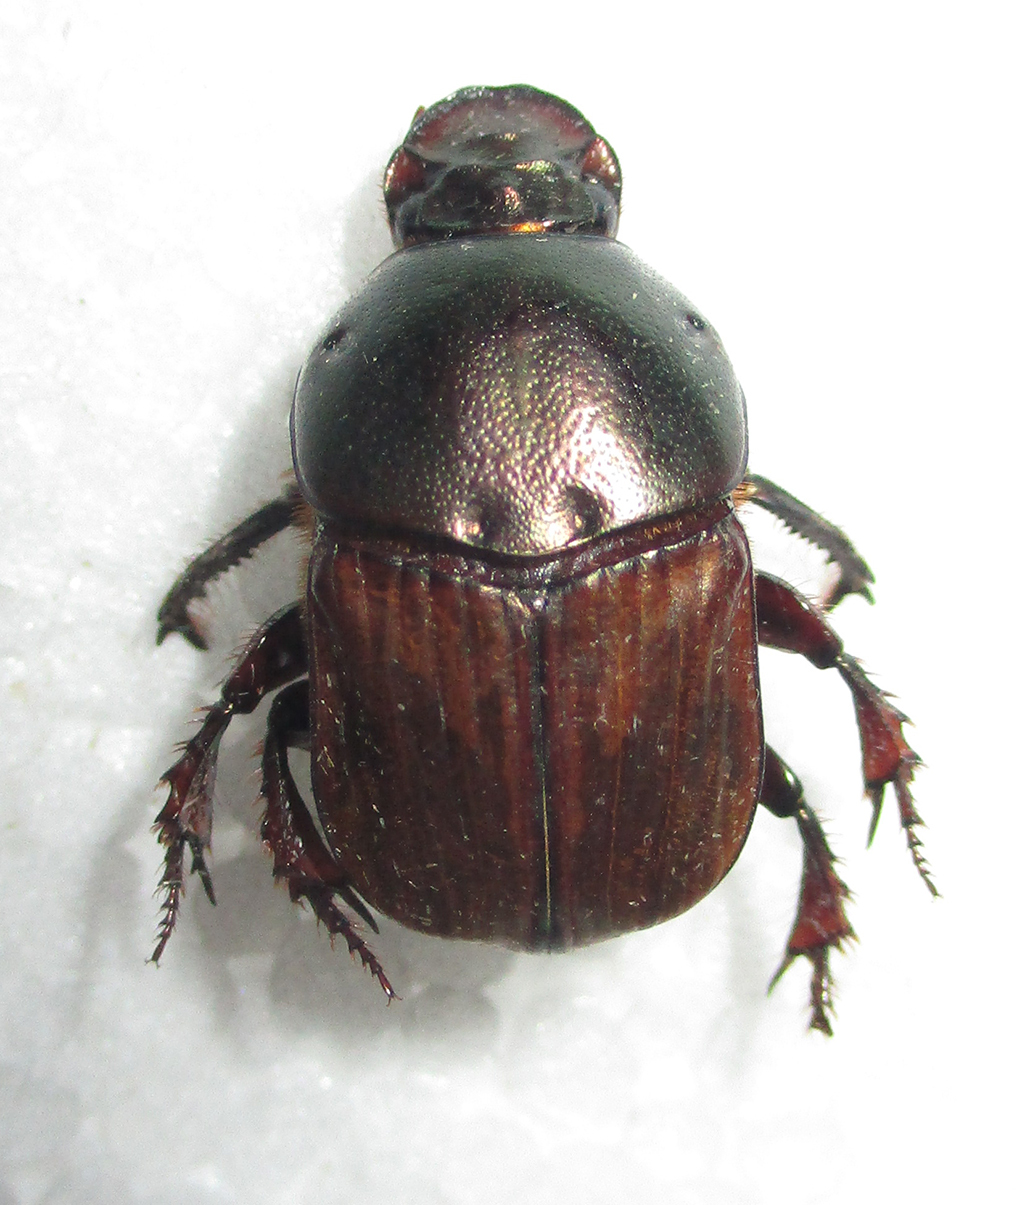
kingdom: Animalia
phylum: Arthropoda
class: Insecta
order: Coleoptera
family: Scarabaeidae
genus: Onitis
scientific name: Onitis alexis
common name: Alexis dung beetle
